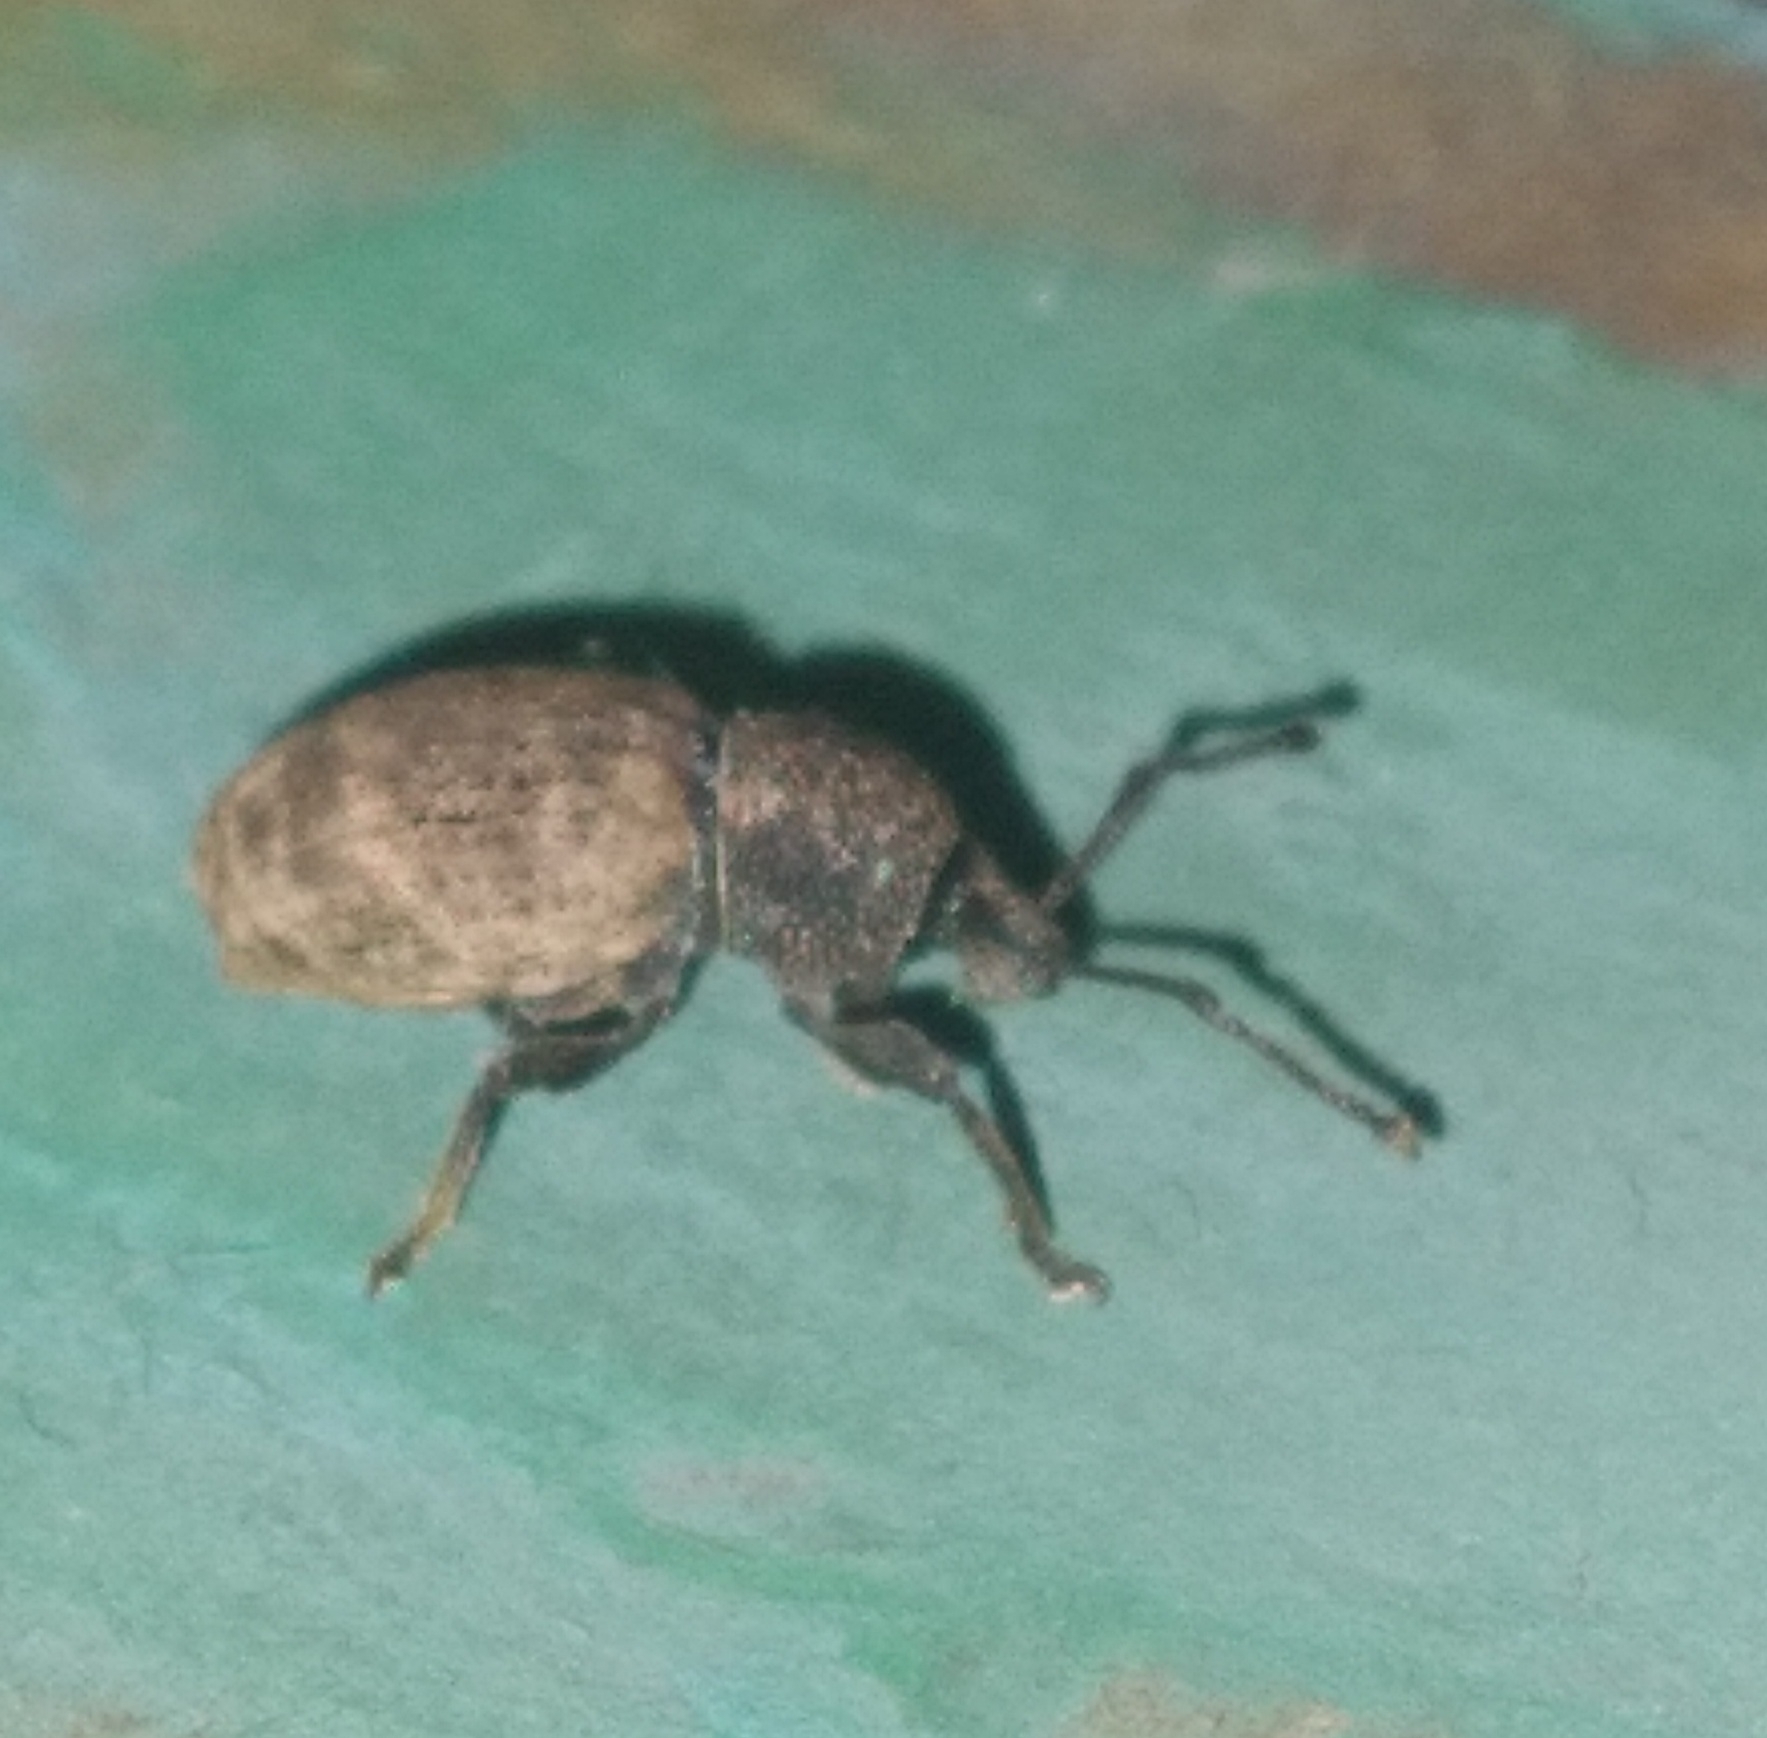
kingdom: Animalia
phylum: Arthropoda
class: Insecta
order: Coleoptera
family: Curculionidae
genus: Otiorhynchus
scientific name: Otiorhynchus raucus
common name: Weevil
